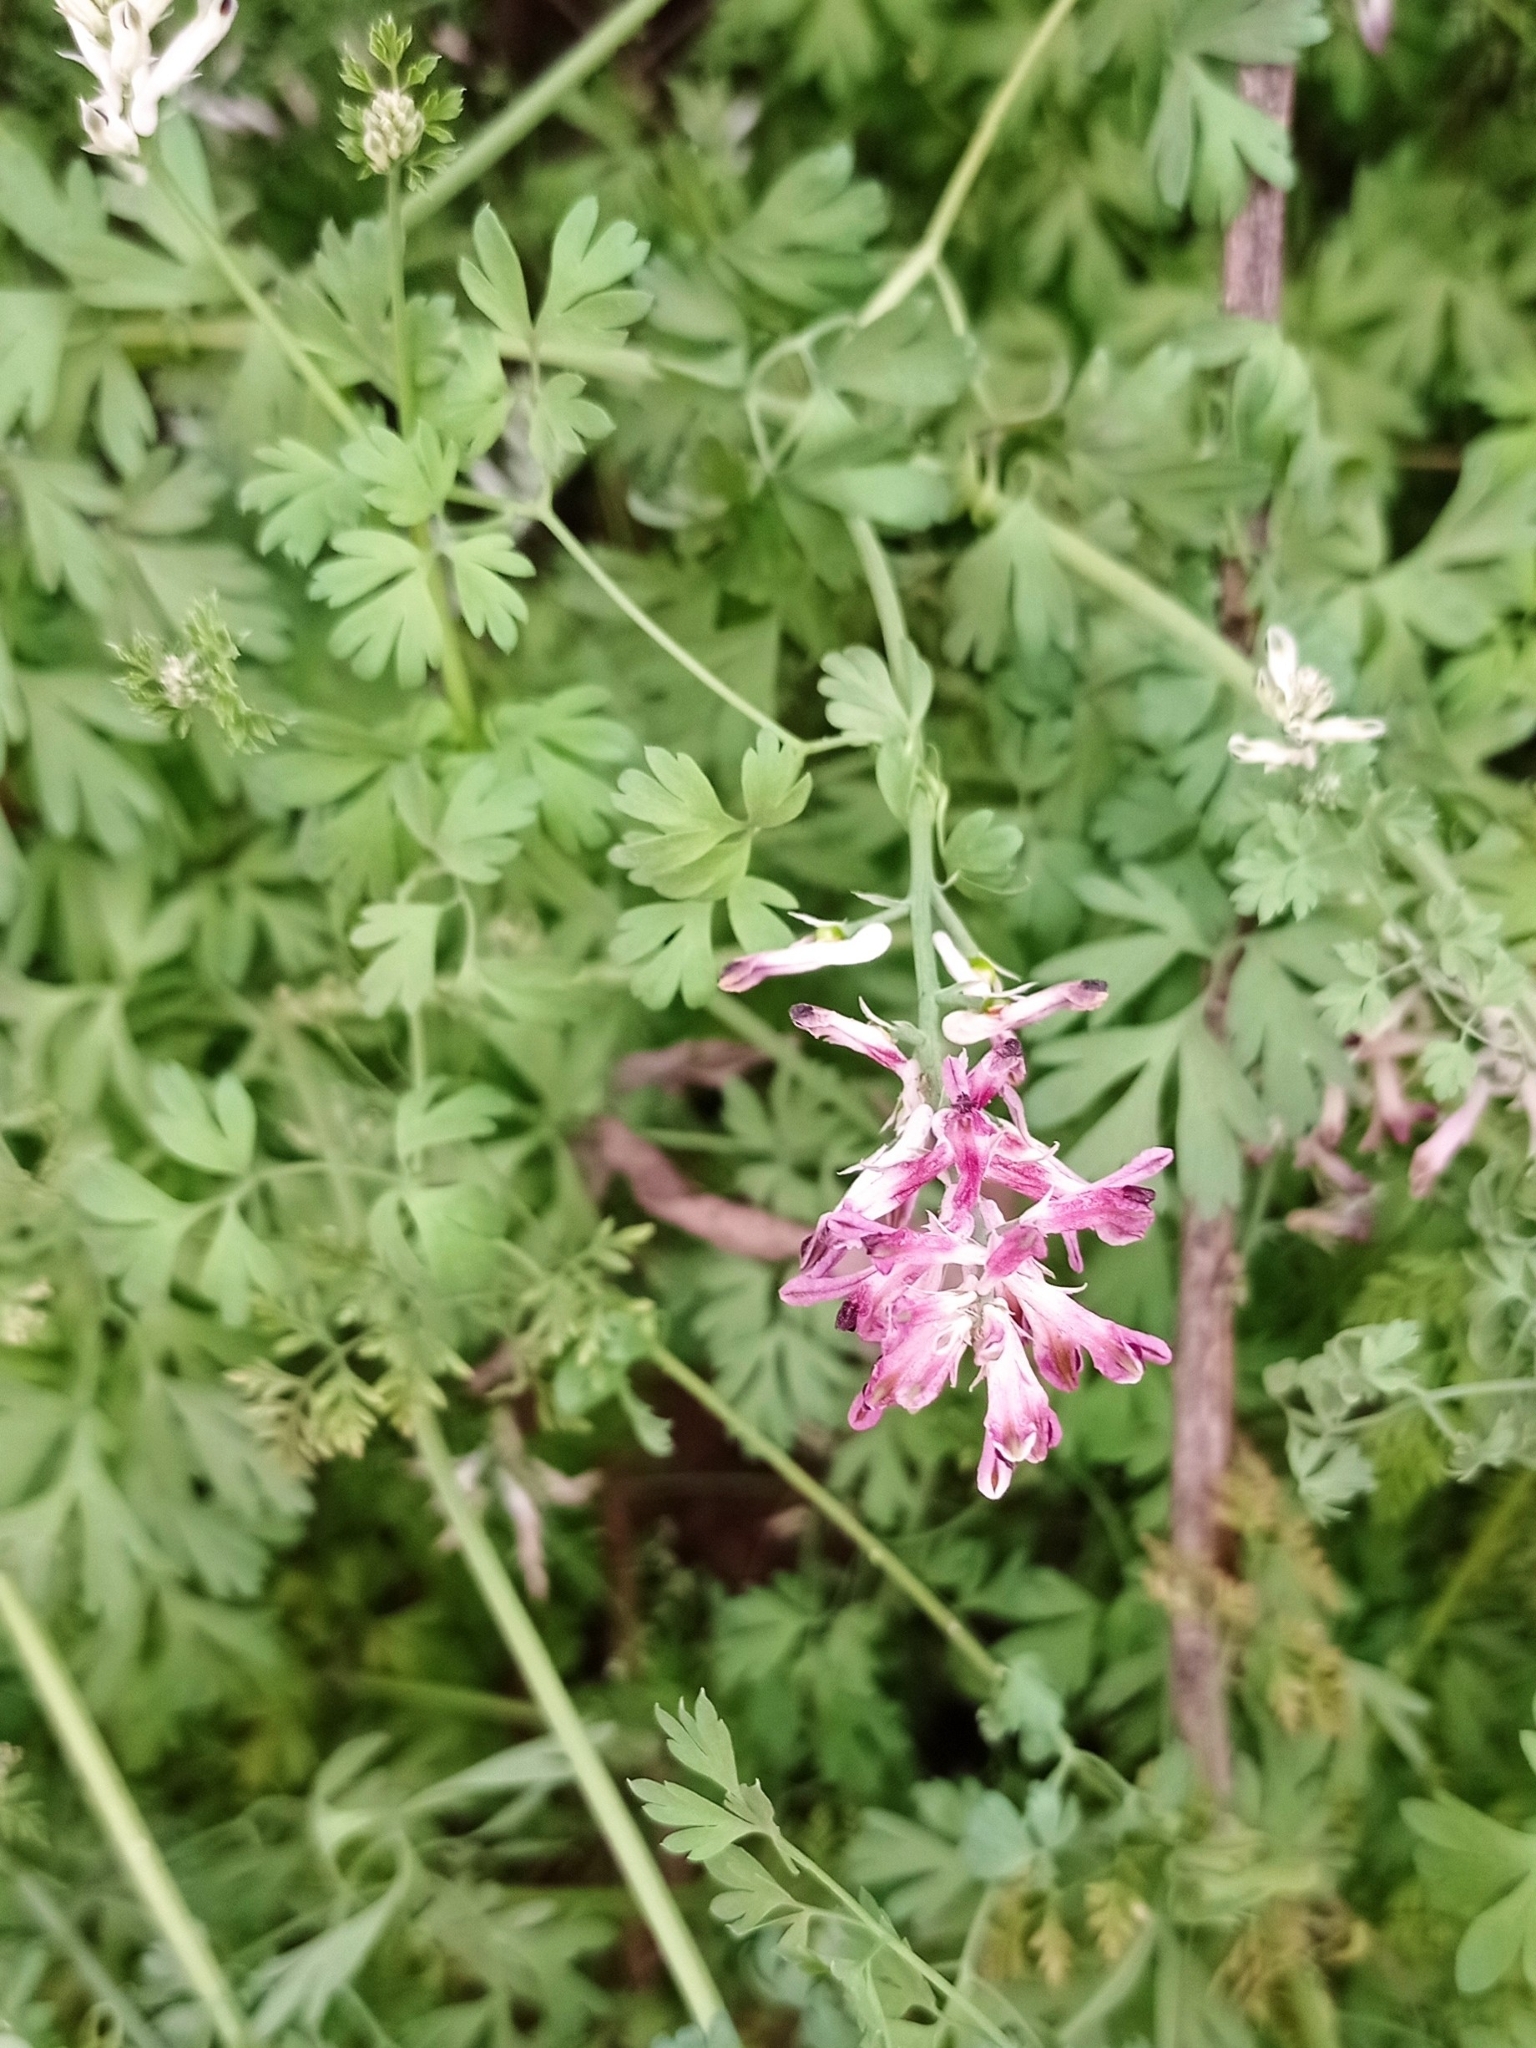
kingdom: Plantae
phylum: Tracheophyta
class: Magnoliopsida
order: Ranunculales
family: Papaveraceae
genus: Fumaria
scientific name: Fumaria agraria
